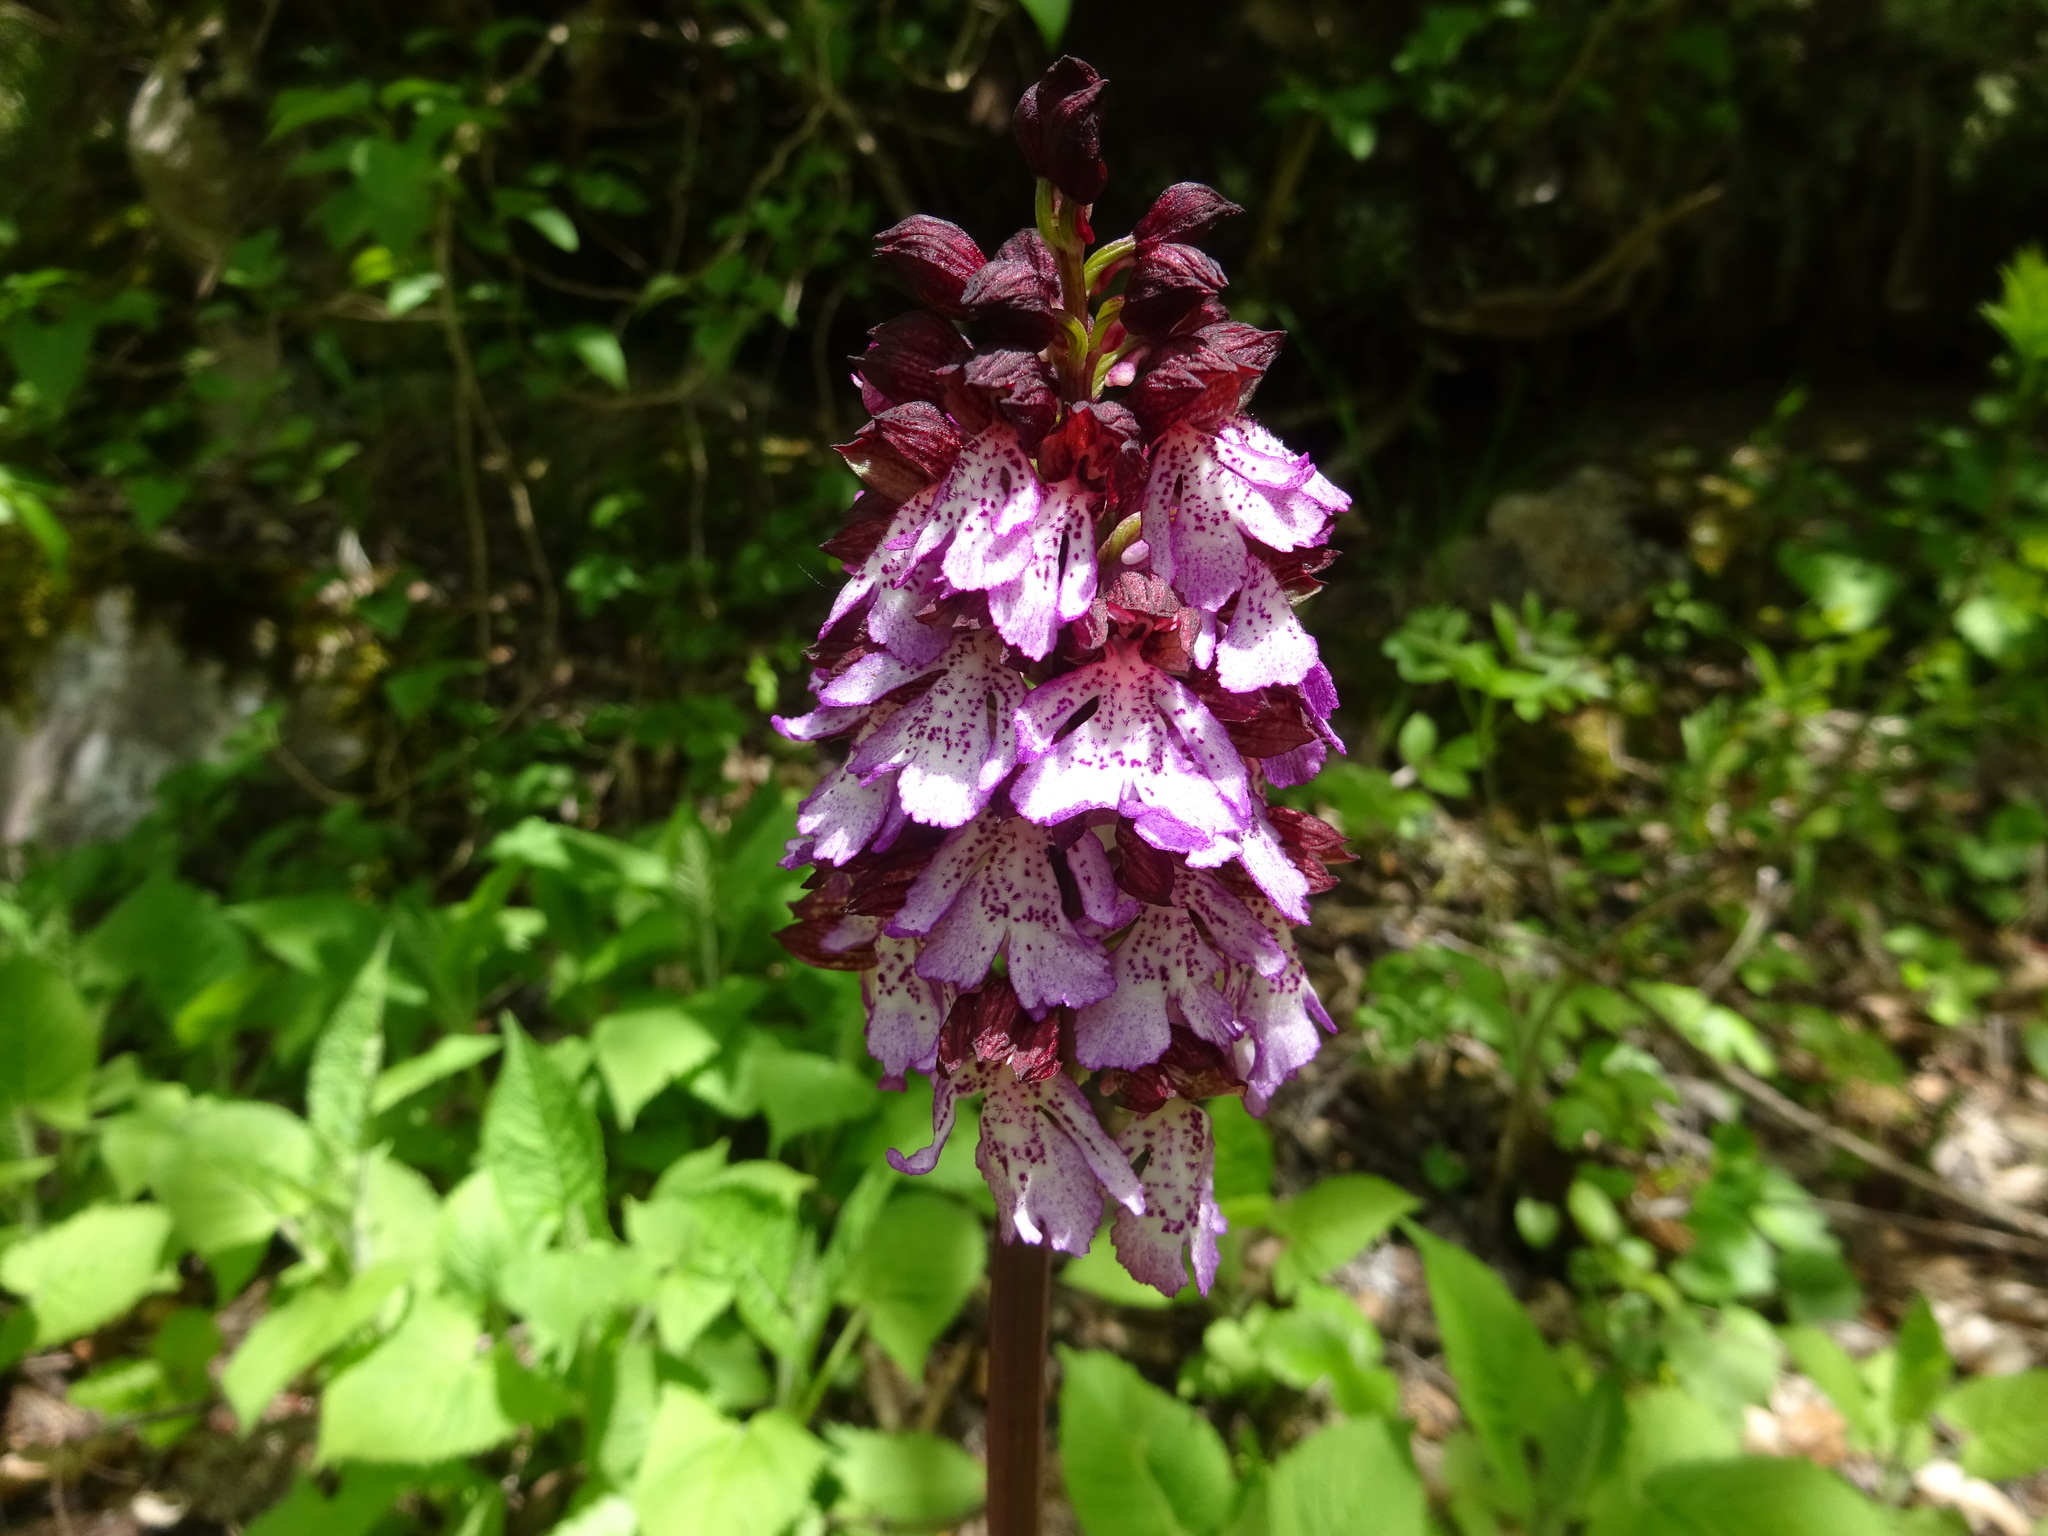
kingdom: Plantae
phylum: Tracheophyta
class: Liliopsida
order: Asparagales
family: Orchidaceae
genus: Orchis
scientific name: Orchis purpurea
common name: Lady orchid
